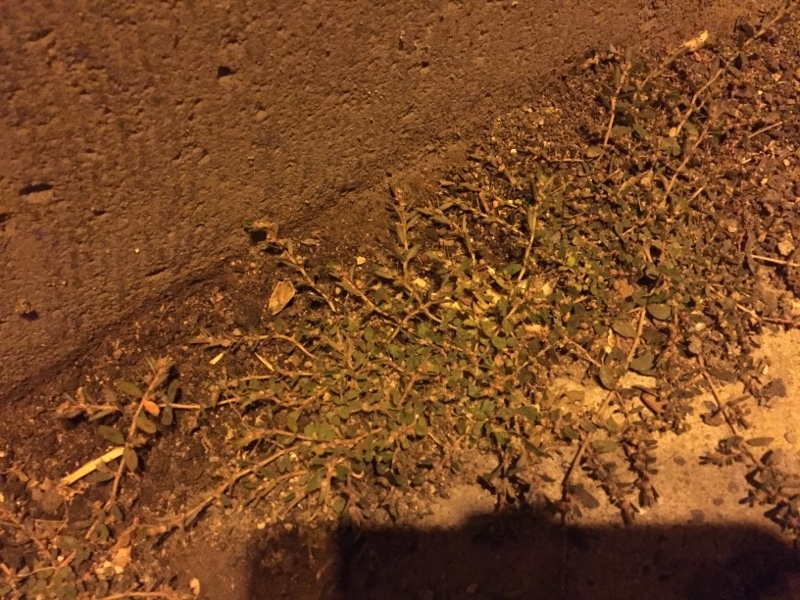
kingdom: Plantae
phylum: Tracheophyta
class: Magnoliopsida
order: Malpighiales
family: Euphorbiaceae
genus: Euphorbia
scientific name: Euphorbia maculata
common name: Spotted spurge
